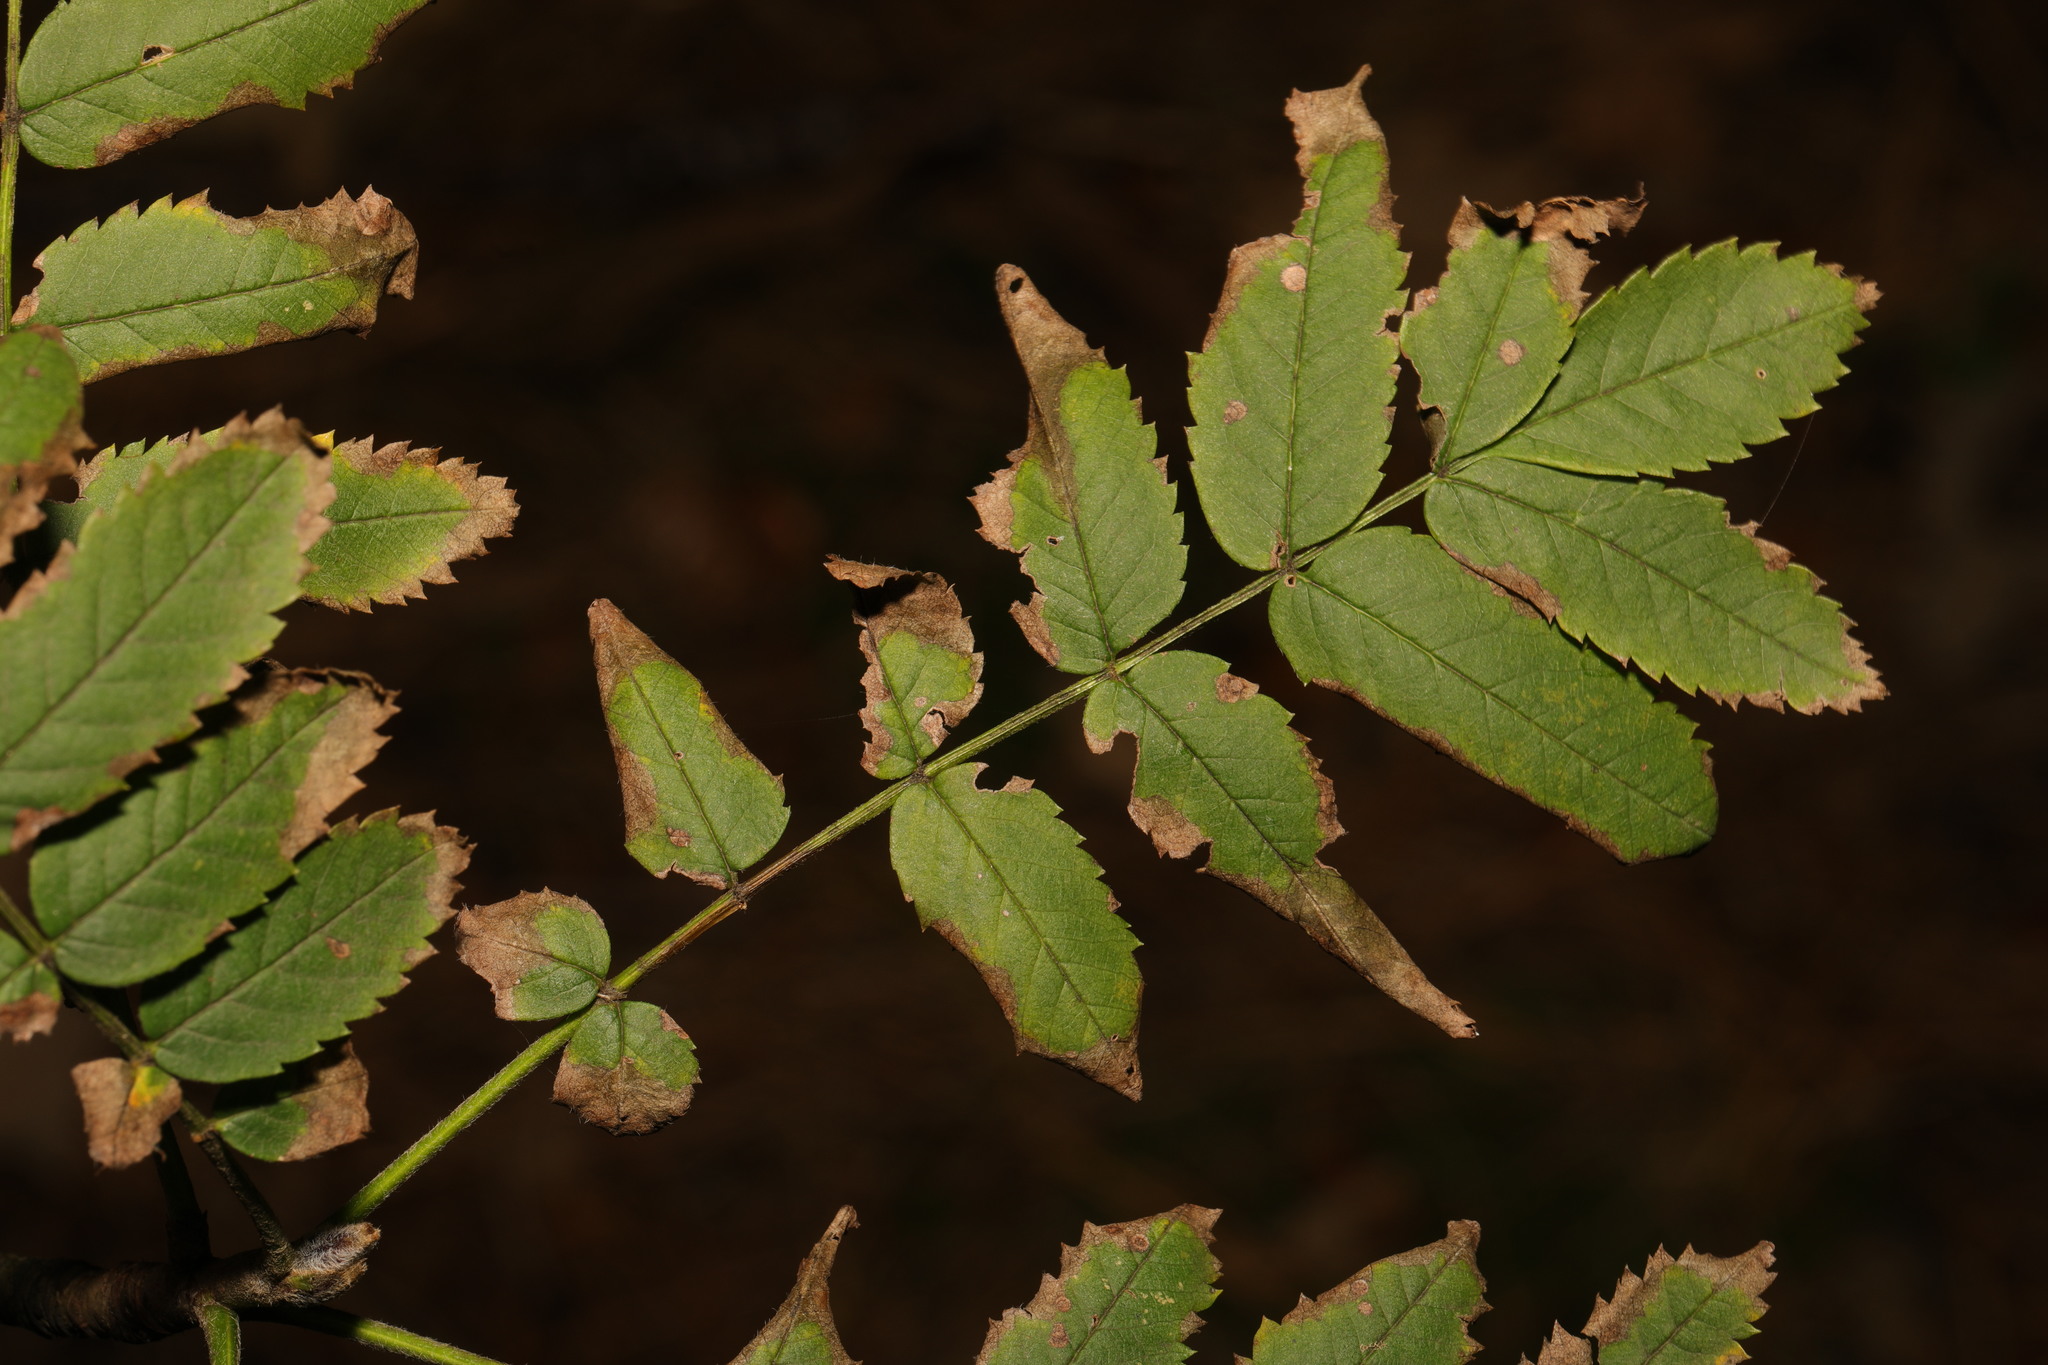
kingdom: Plantae
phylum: Tracheophyta
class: Magnoliopsida
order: Rosales
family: Rosaceae
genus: Sorbus
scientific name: Sorbus aucuparia
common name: Rowan
